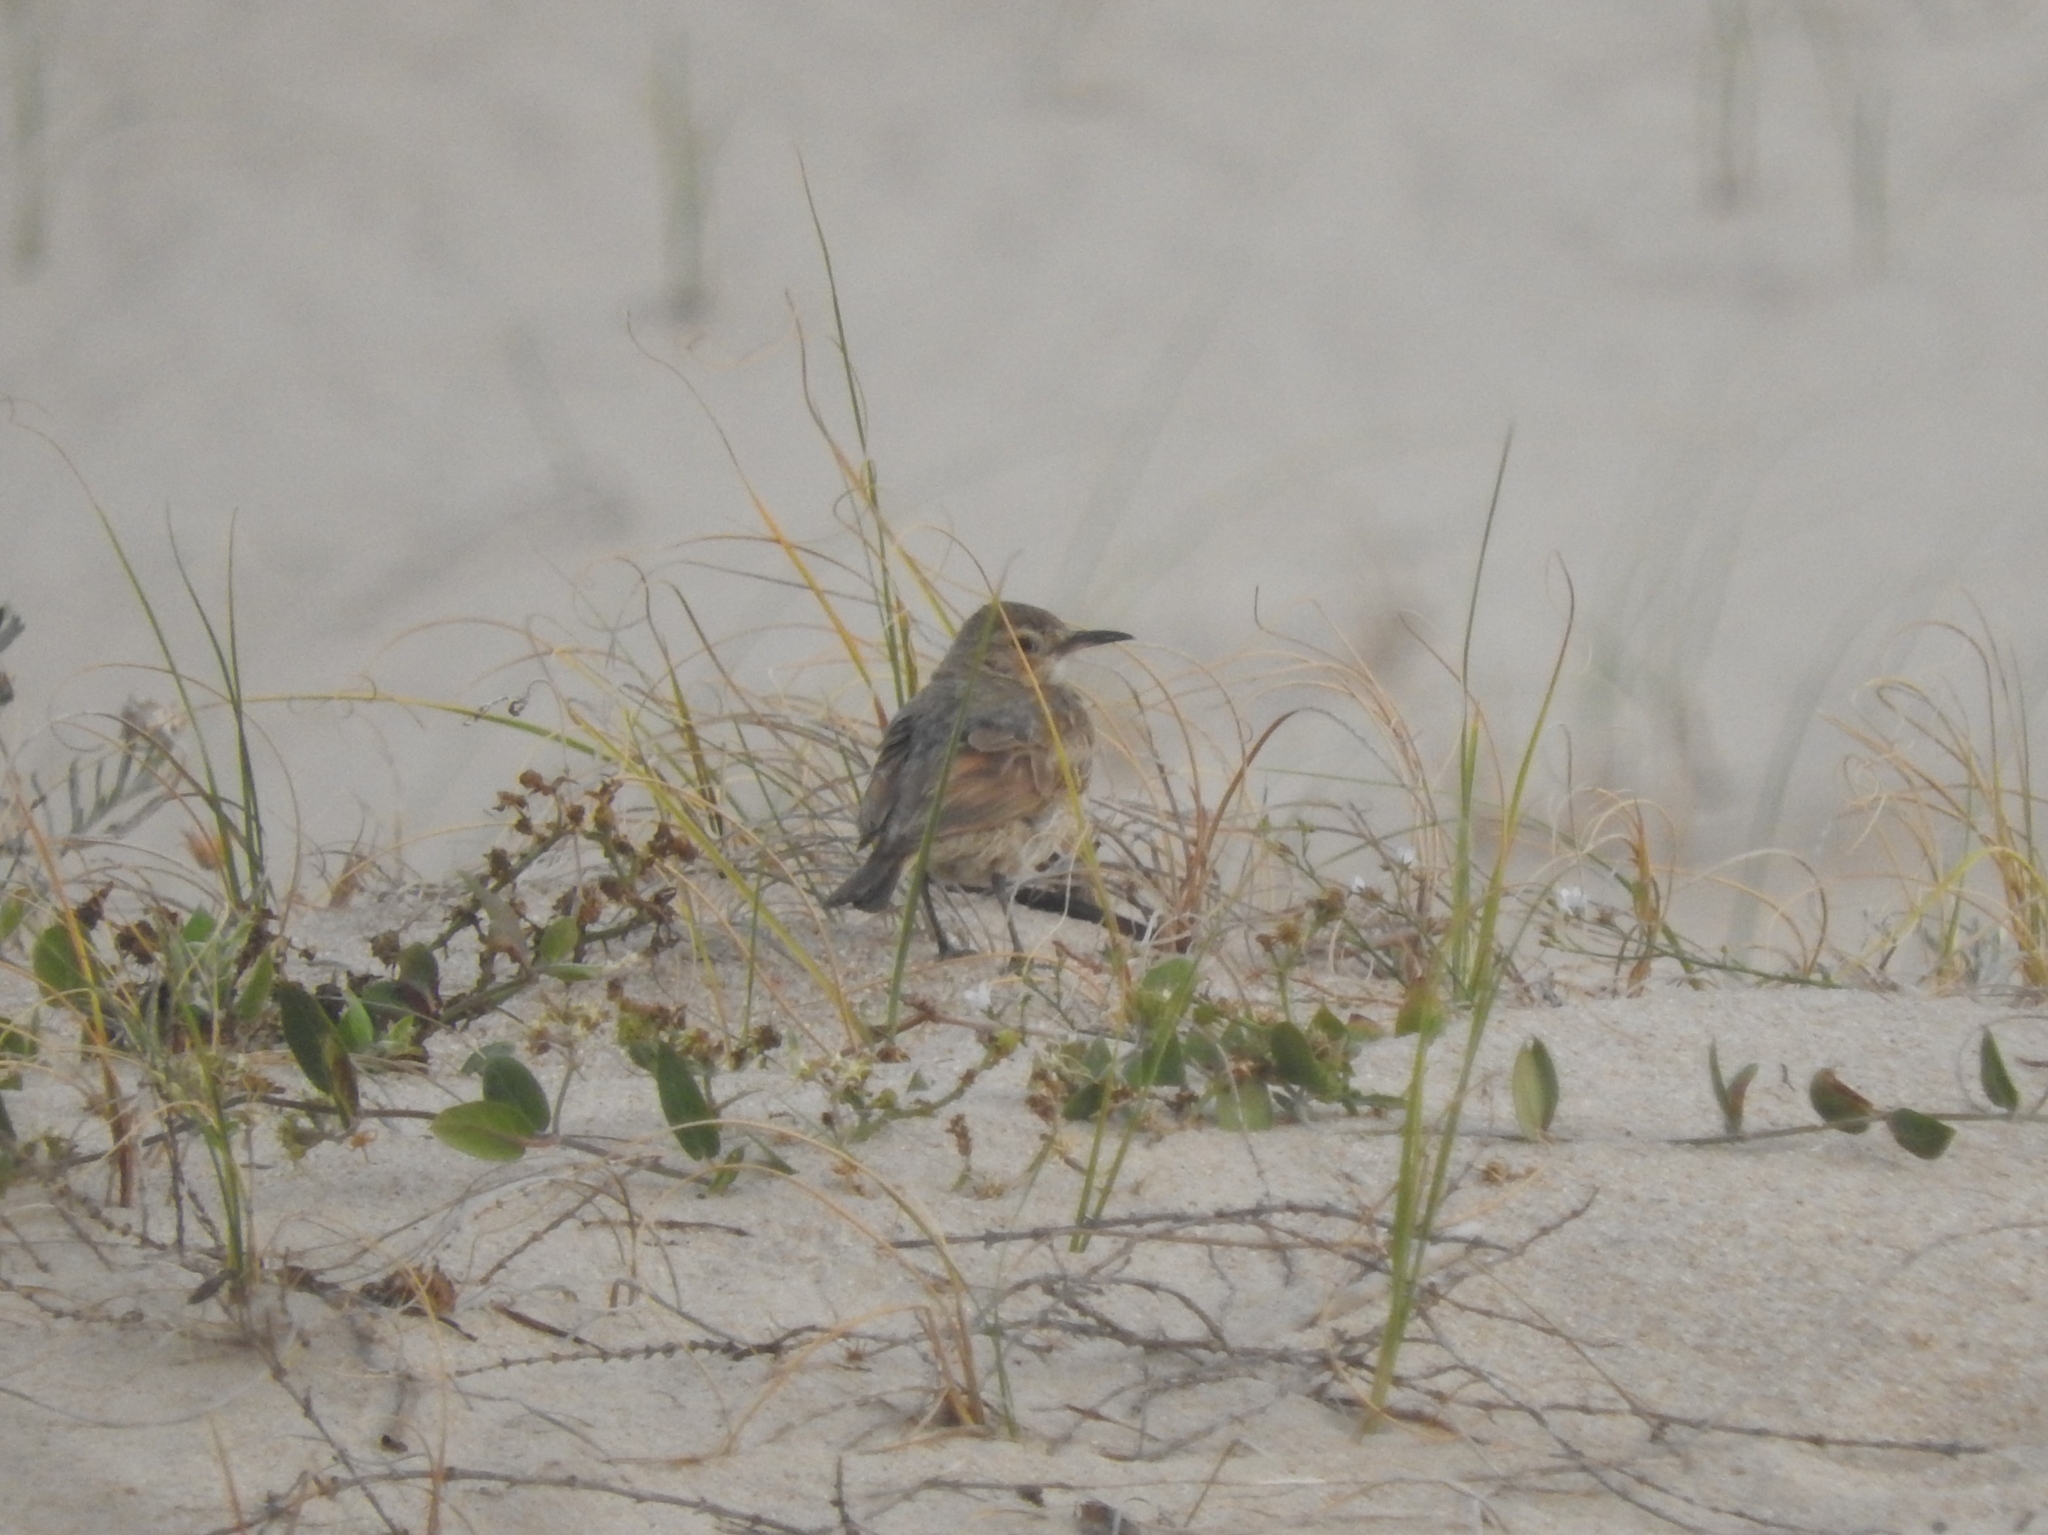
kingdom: Animalia
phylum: Chordata
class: Aves
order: Passeriformes
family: Furnariidae
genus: Geositta
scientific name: Geositta cunicularia
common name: Common miner
